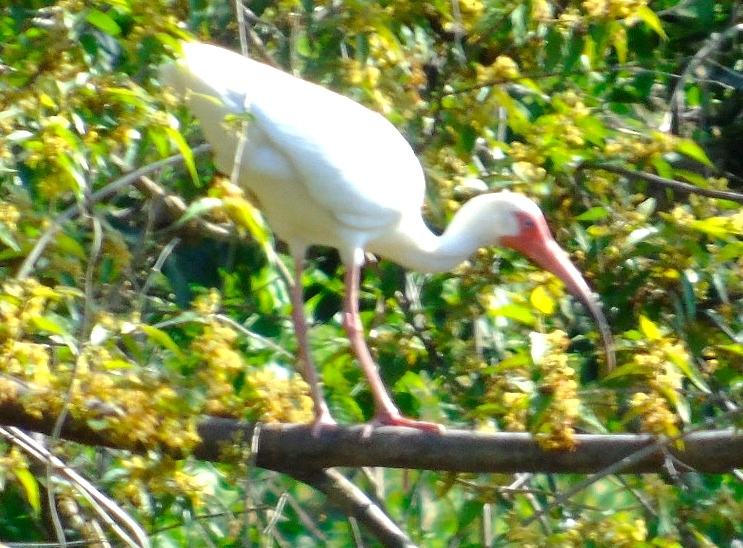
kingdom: Animalia
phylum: Chordata
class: Aves
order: Pelecaniformes
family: Threskiornithidae
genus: Eudocimus
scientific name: Eudocimus albus
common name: White ibis
